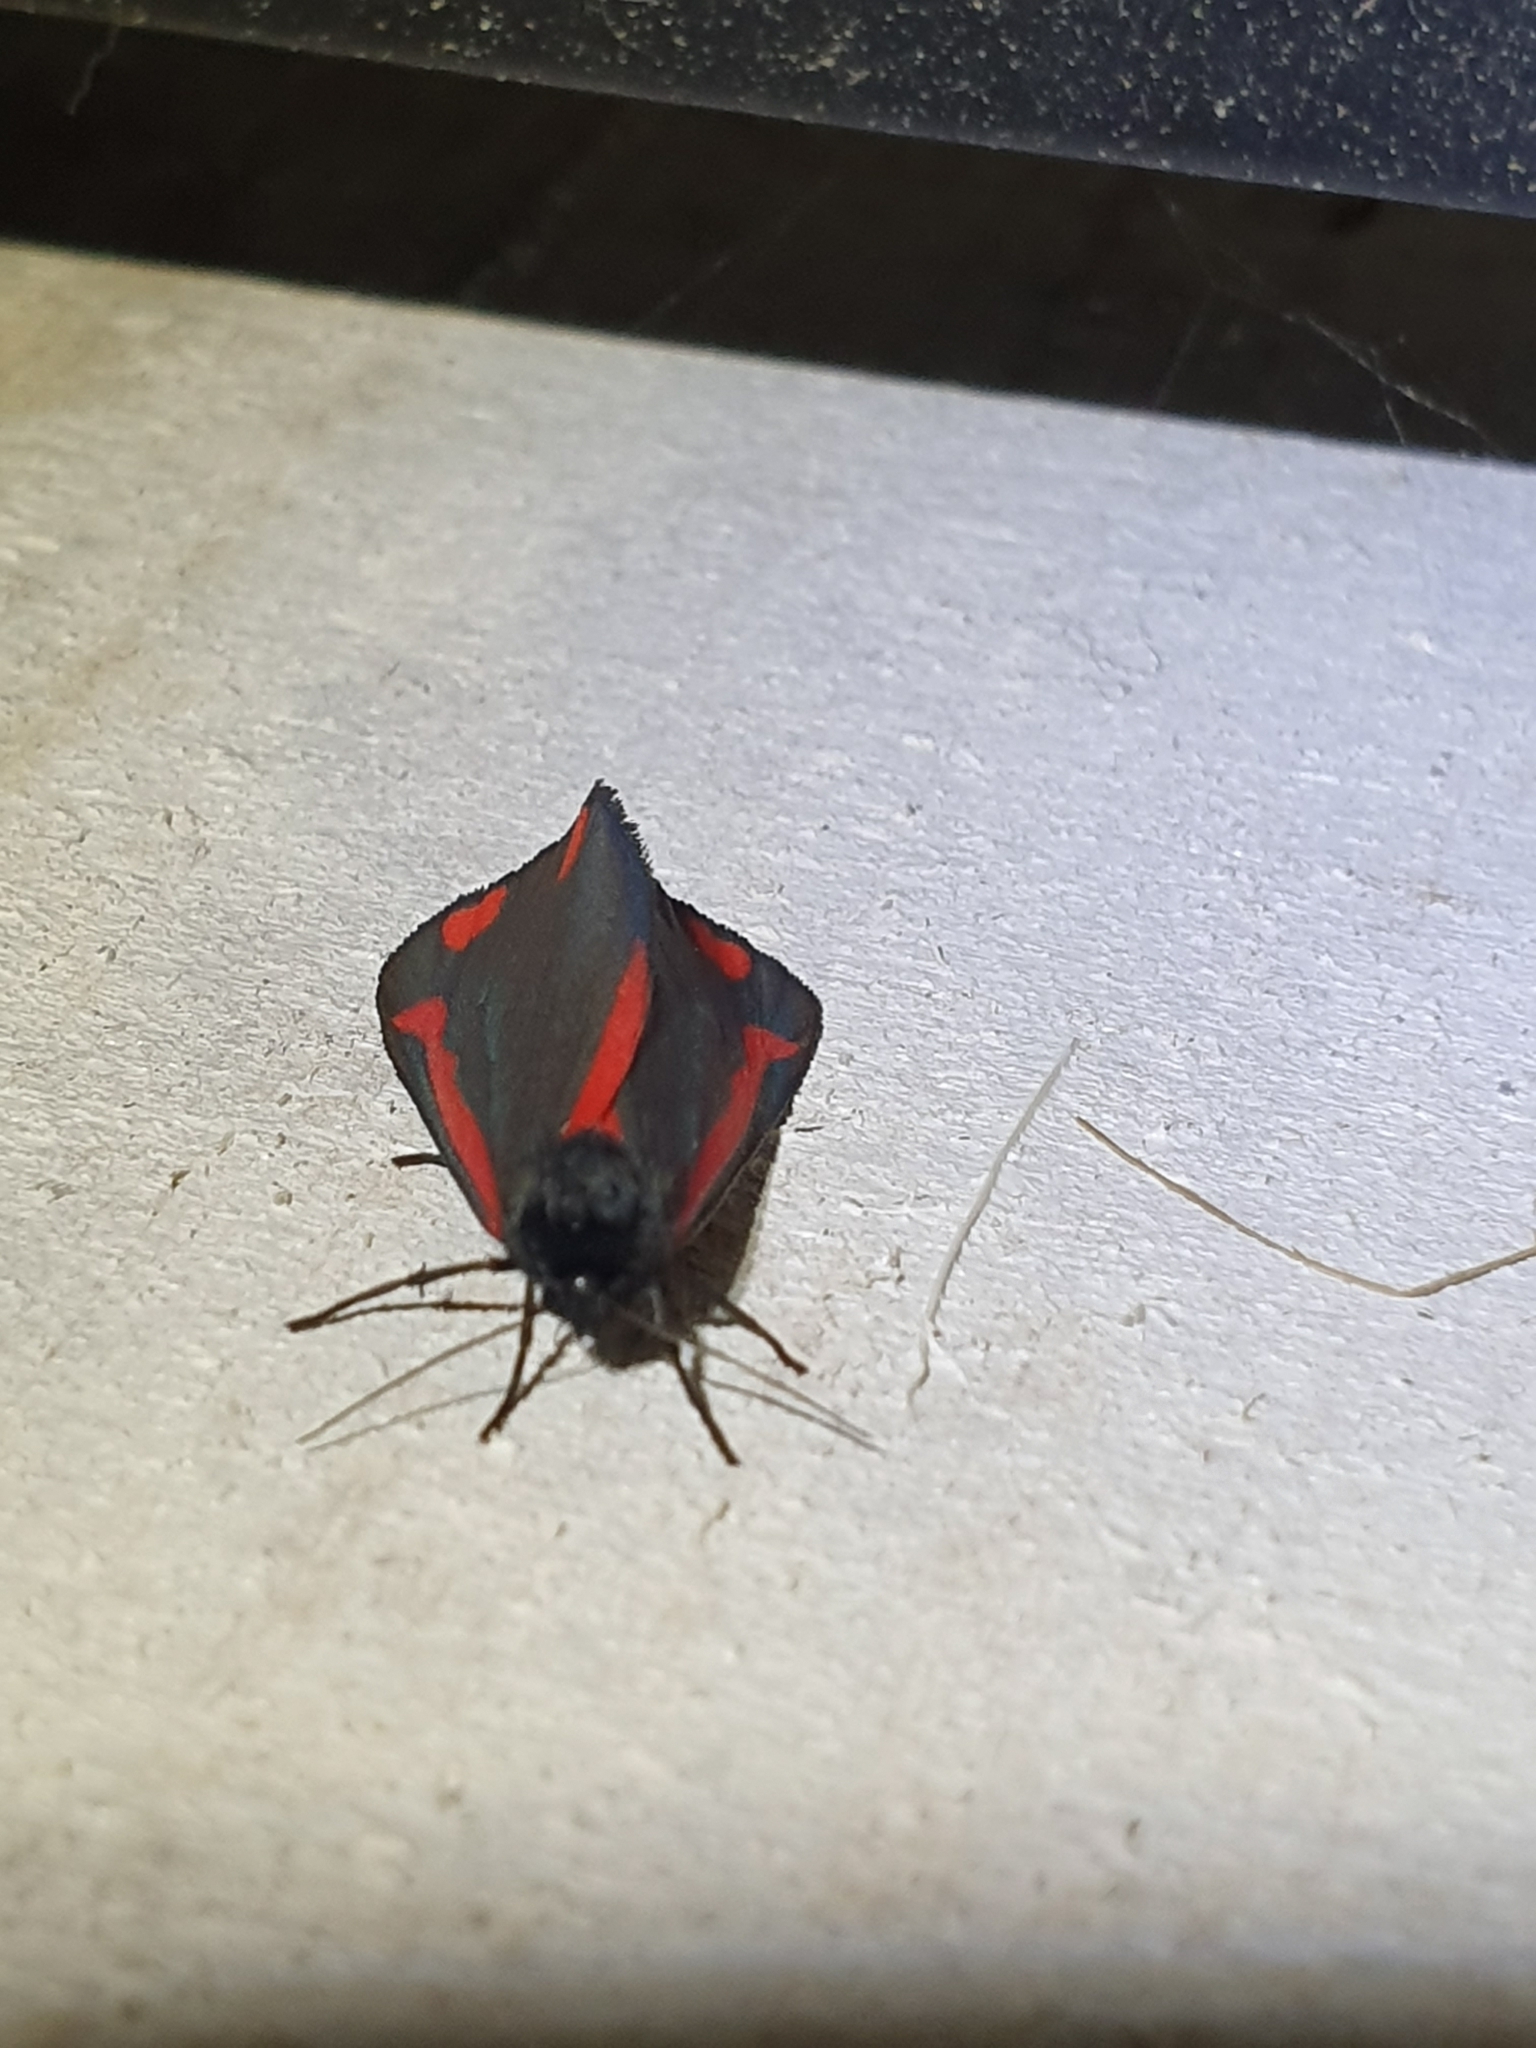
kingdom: Animalia
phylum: Arthropoda
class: Insecta
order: Lepidoptera
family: Erebidae
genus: Tyria
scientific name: Tyria jacobaeae
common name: Cinnabar
